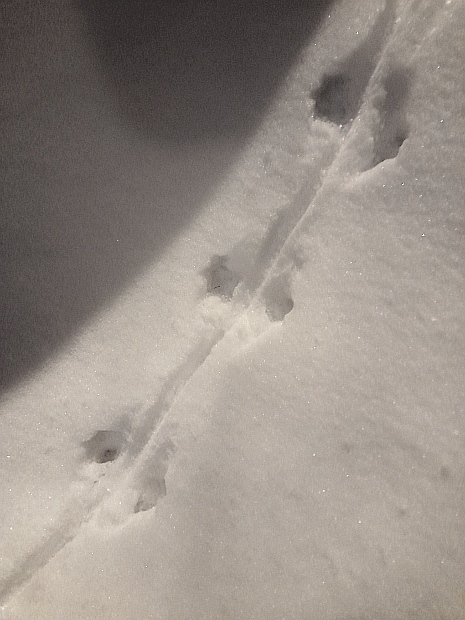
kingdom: Animalia
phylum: Chordata
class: Mammalia
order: Rodentia
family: Muridae
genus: Rattus
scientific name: Rattus norvegicus
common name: Brown rat
